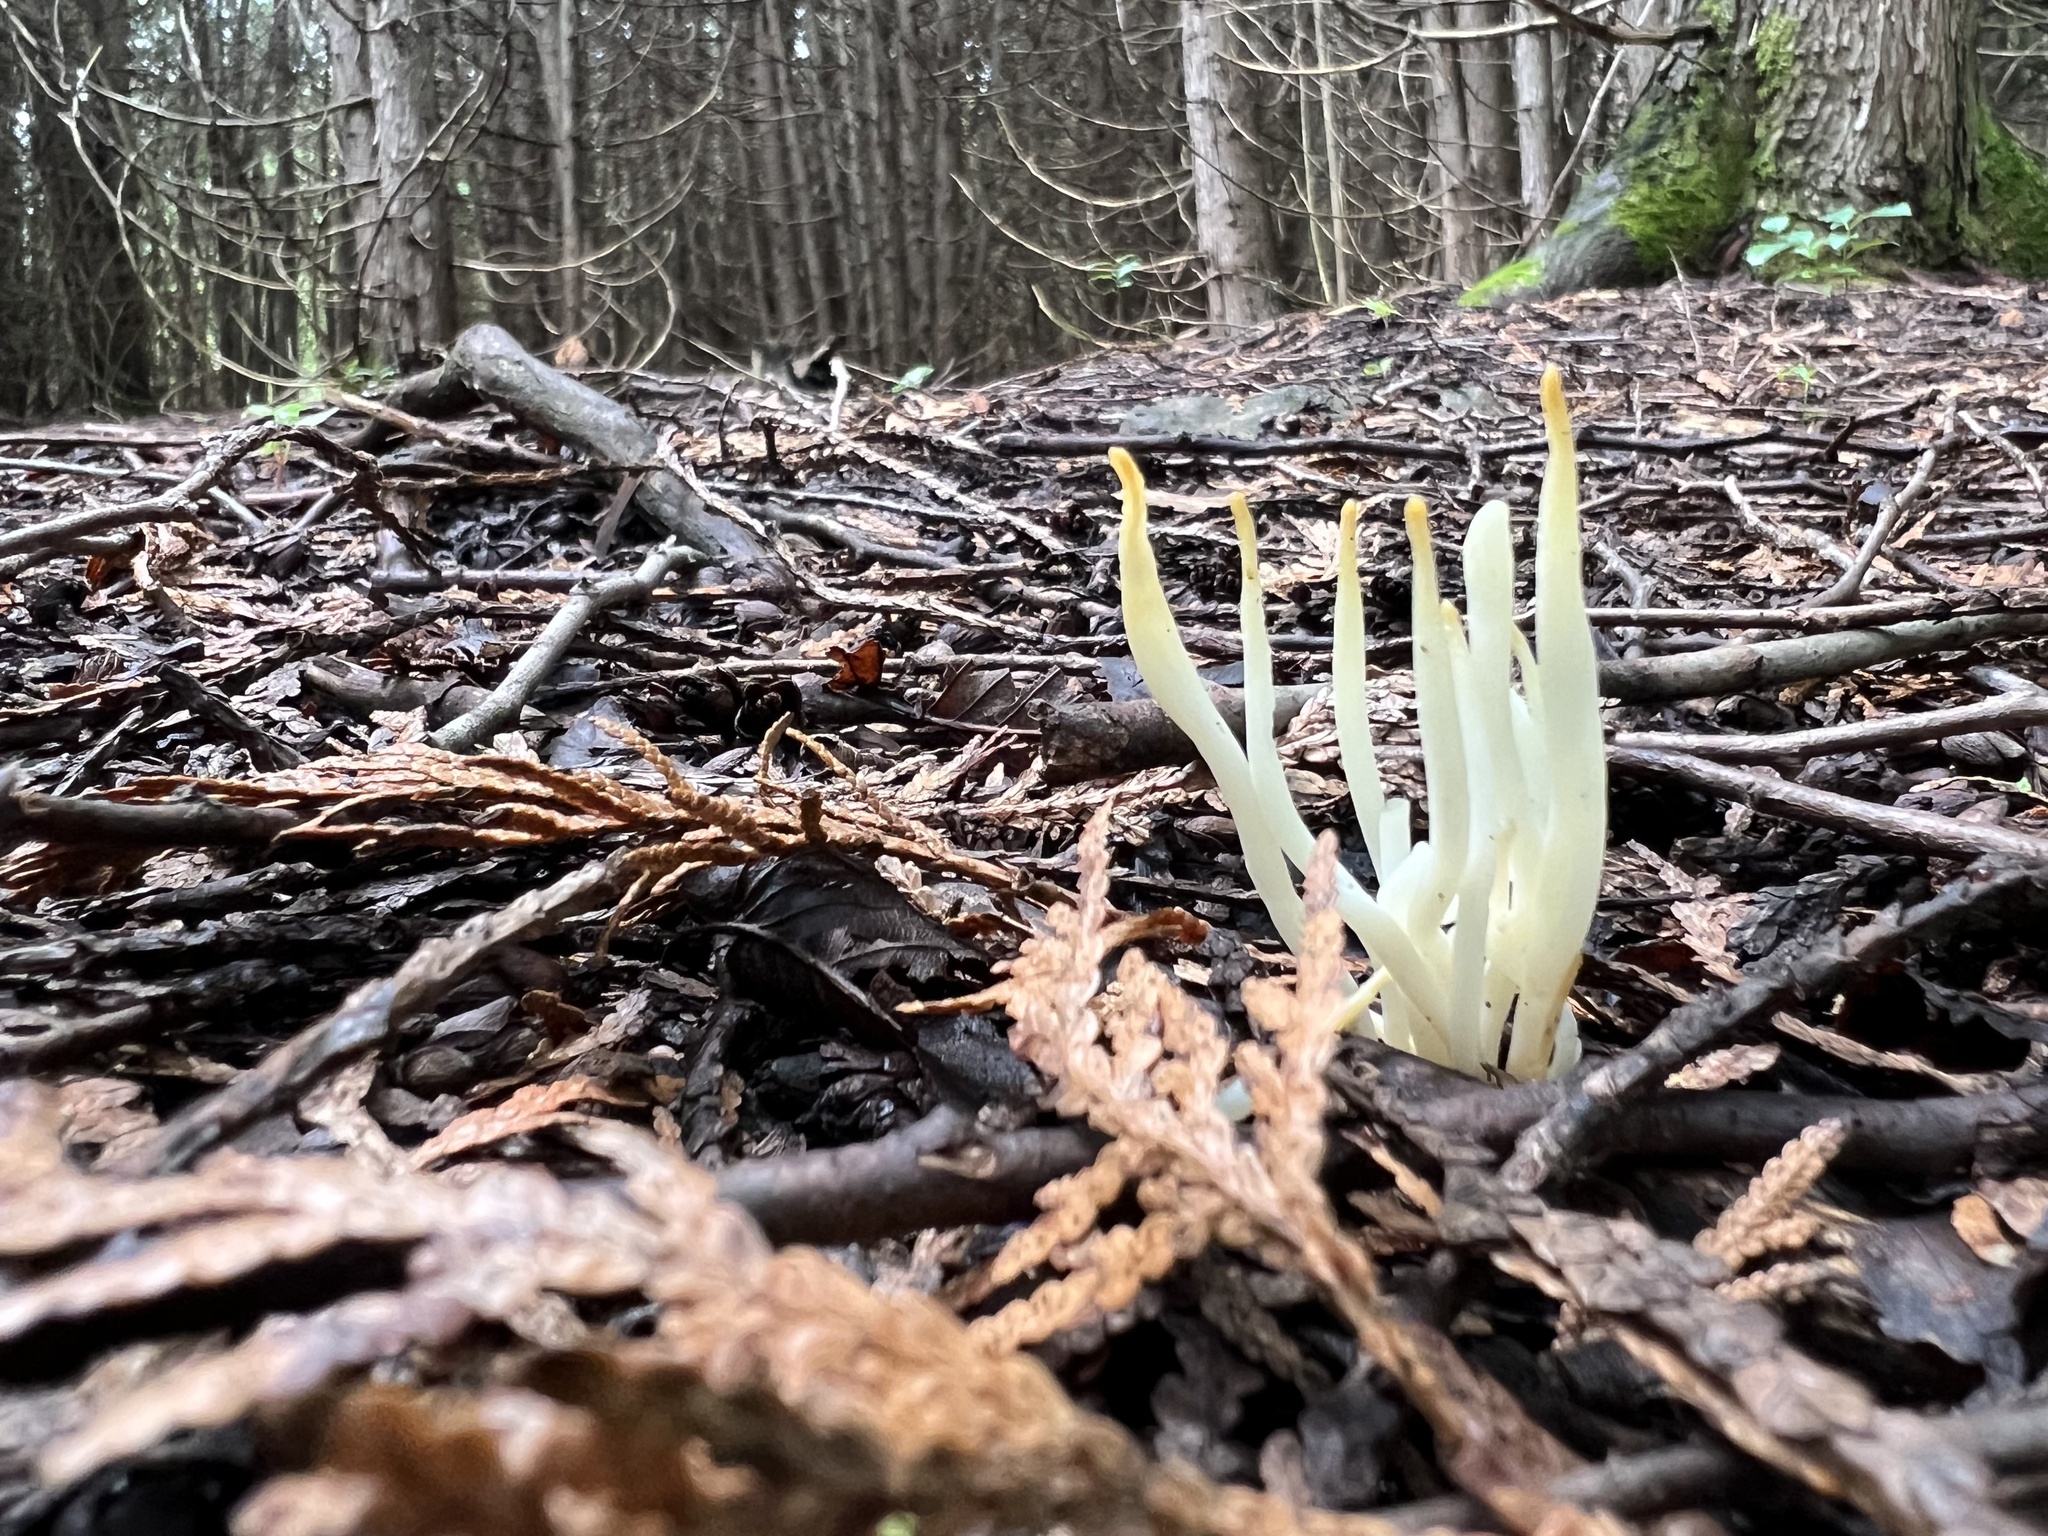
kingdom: Fungi
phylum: Basidiomycota
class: Agaricomycetes
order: Agaricales
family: Clavariaceae
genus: Clavaria
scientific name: Clavaria fragilis
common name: White spindles
